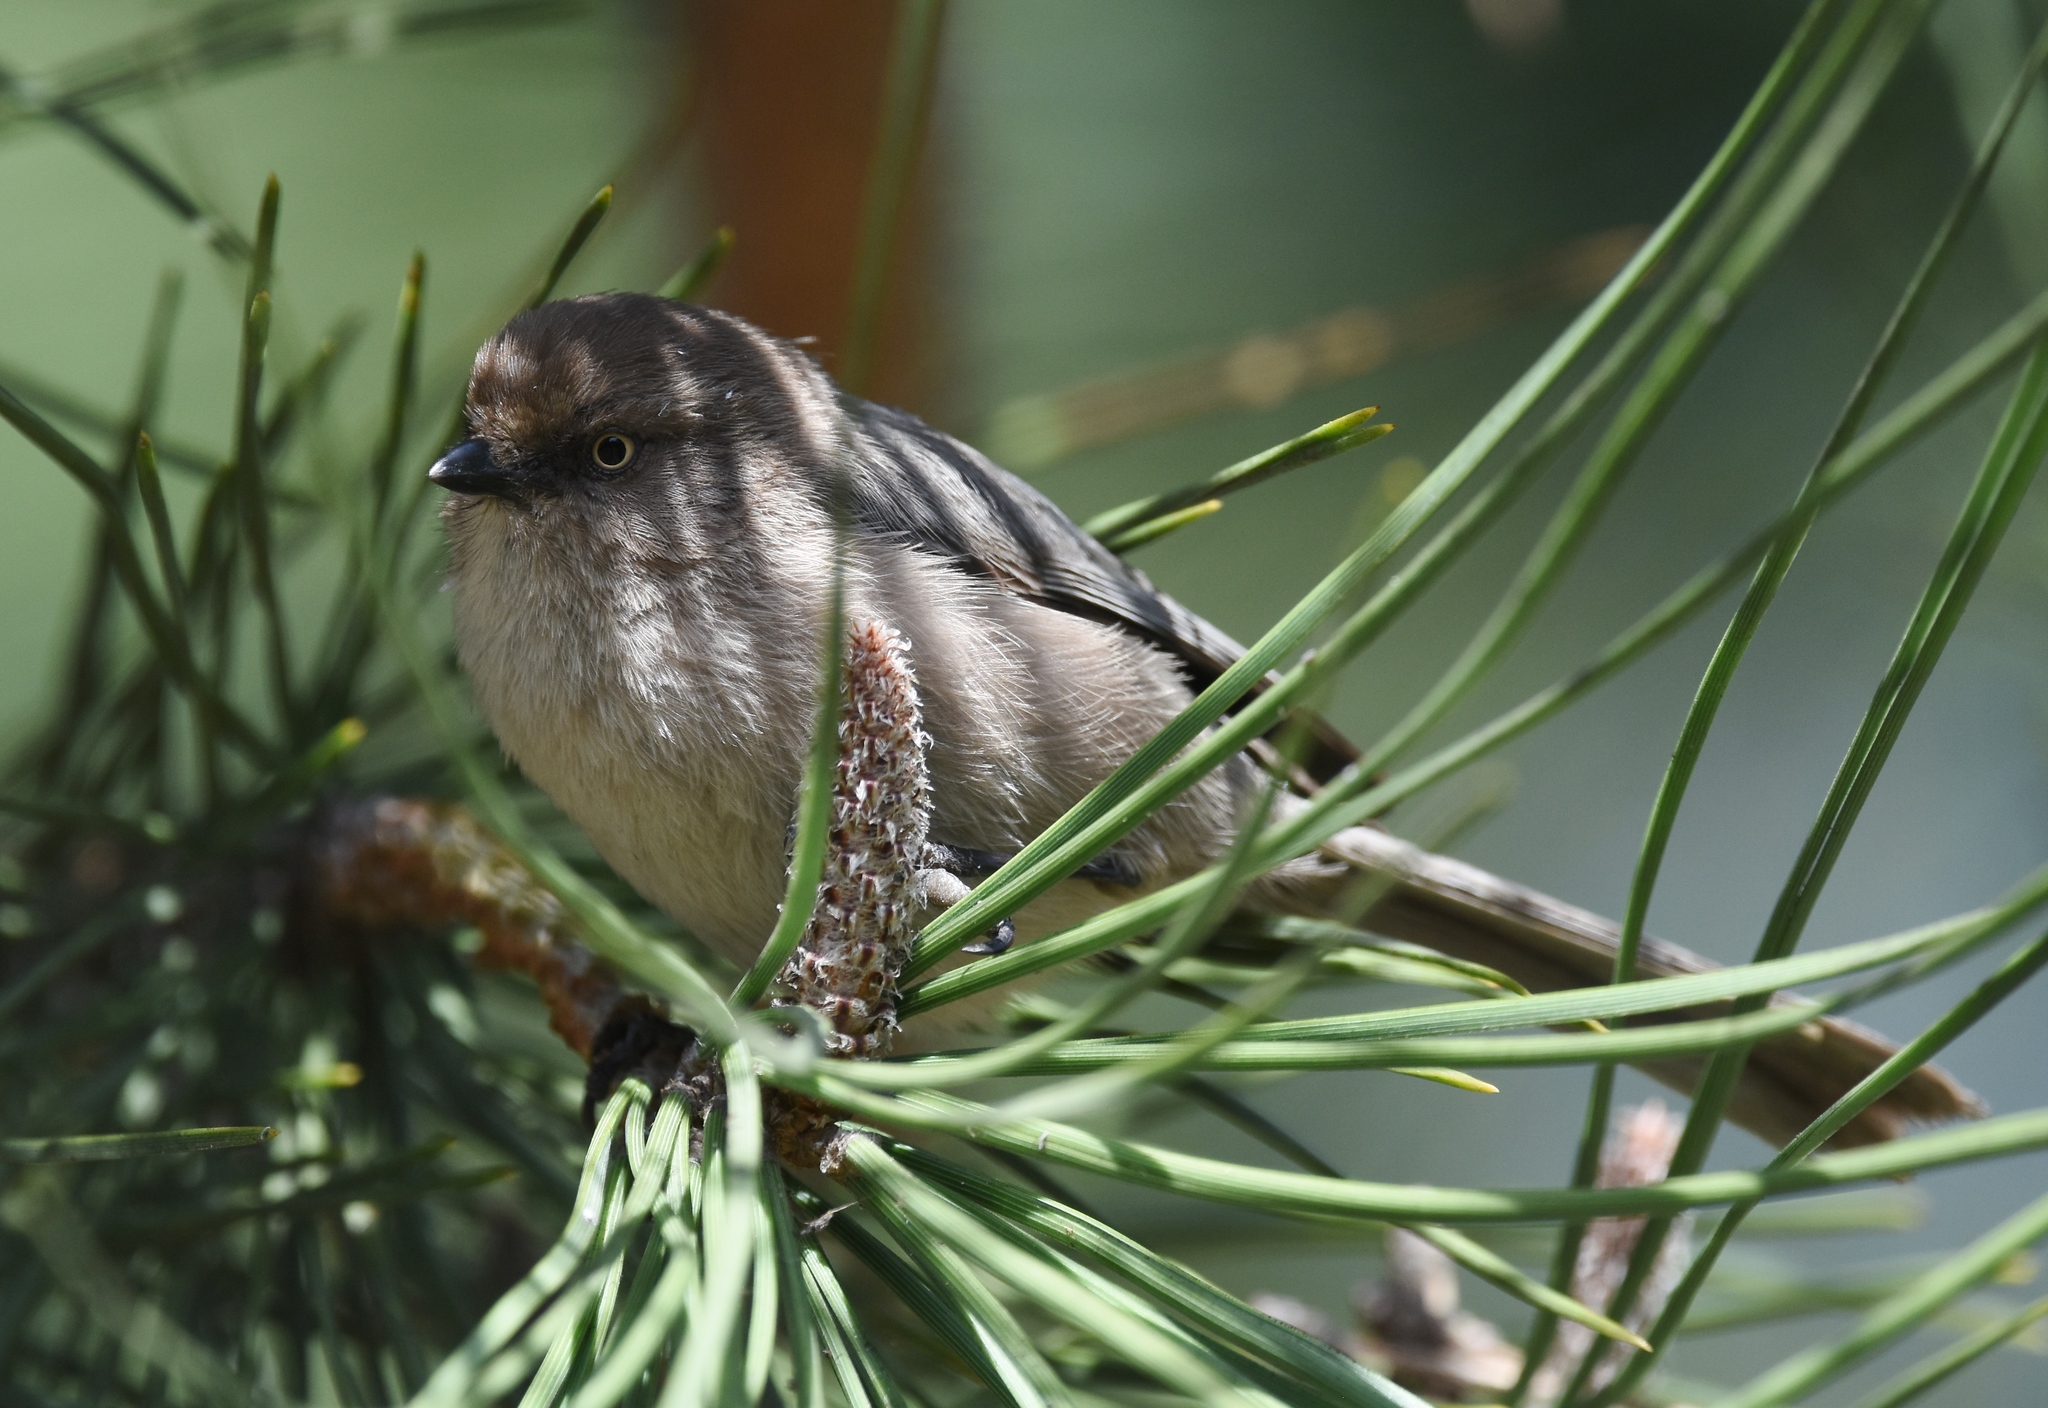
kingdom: Animalia
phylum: Chordata
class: Aves
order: Passeriformes
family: Aegithalidae
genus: Psaltriparus
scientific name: Psaltriparus minimus
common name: American bushtit
